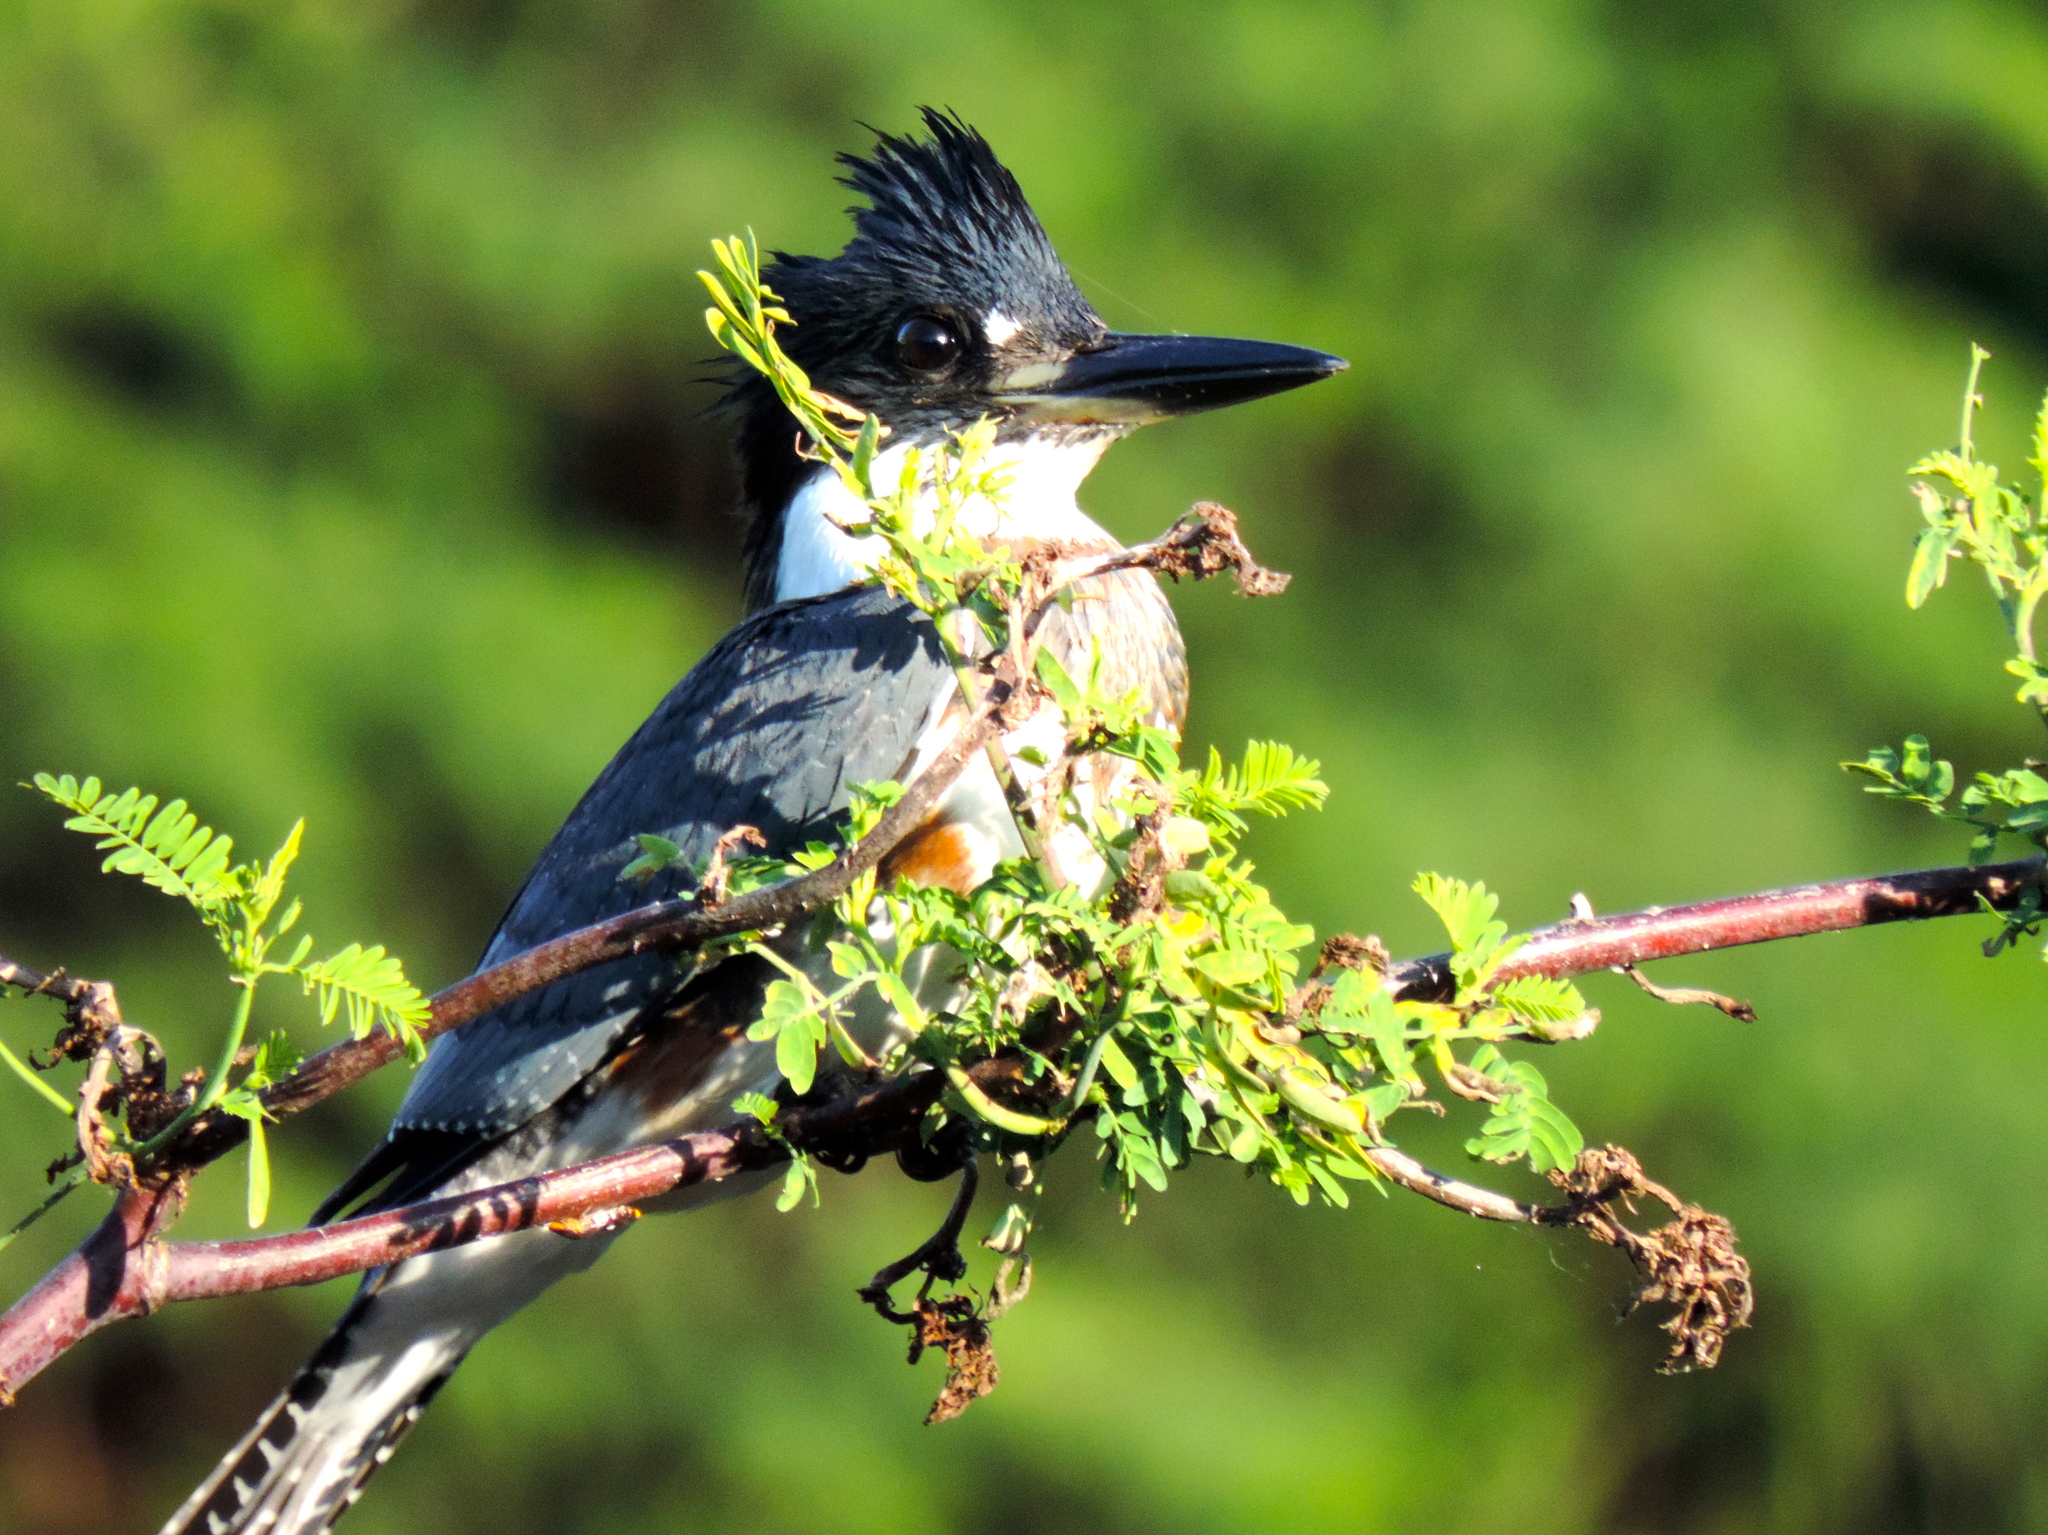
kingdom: Animalia
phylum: Chordata
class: Aves
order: Coraciiformes
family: Alcedinidae
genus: Megaceryle
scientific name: Megaceryle alcyon
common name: Belted kingfisher
